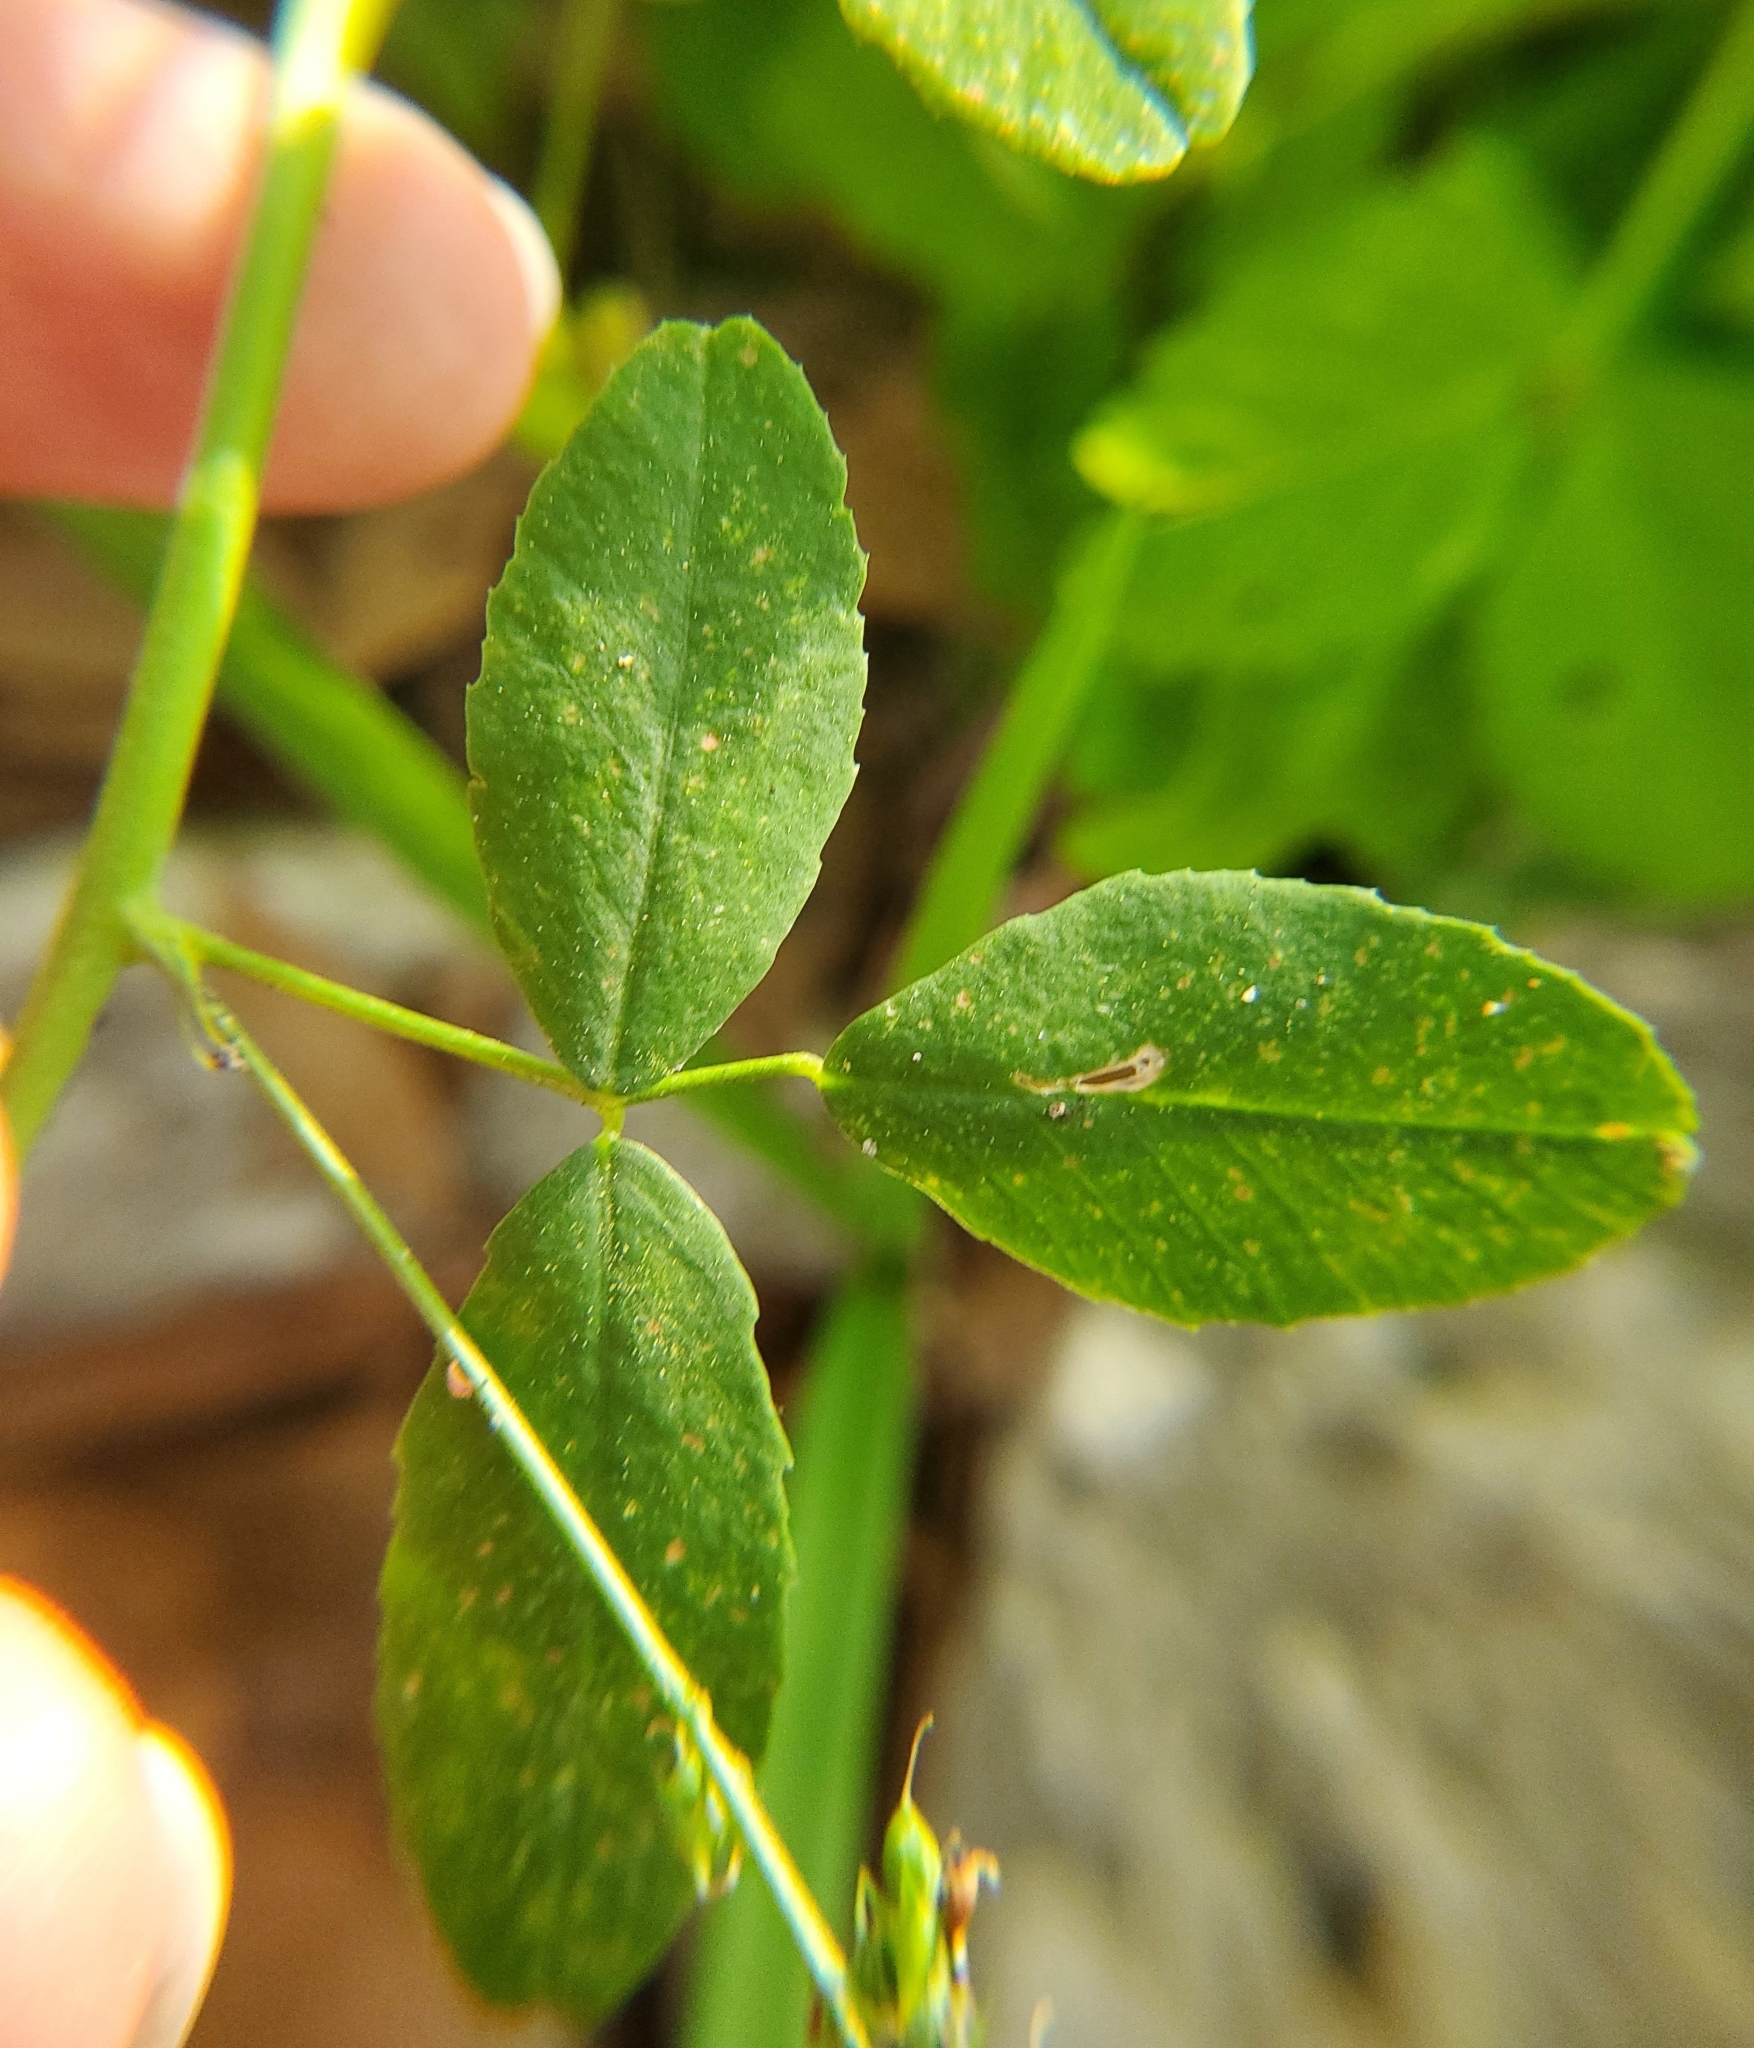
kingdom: Plantae
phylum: Tracheophyta
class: Magnoliopsida
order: Fabales
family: Fabaceae
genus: Melilotus
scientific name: Melilotus albus
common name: White melilot
